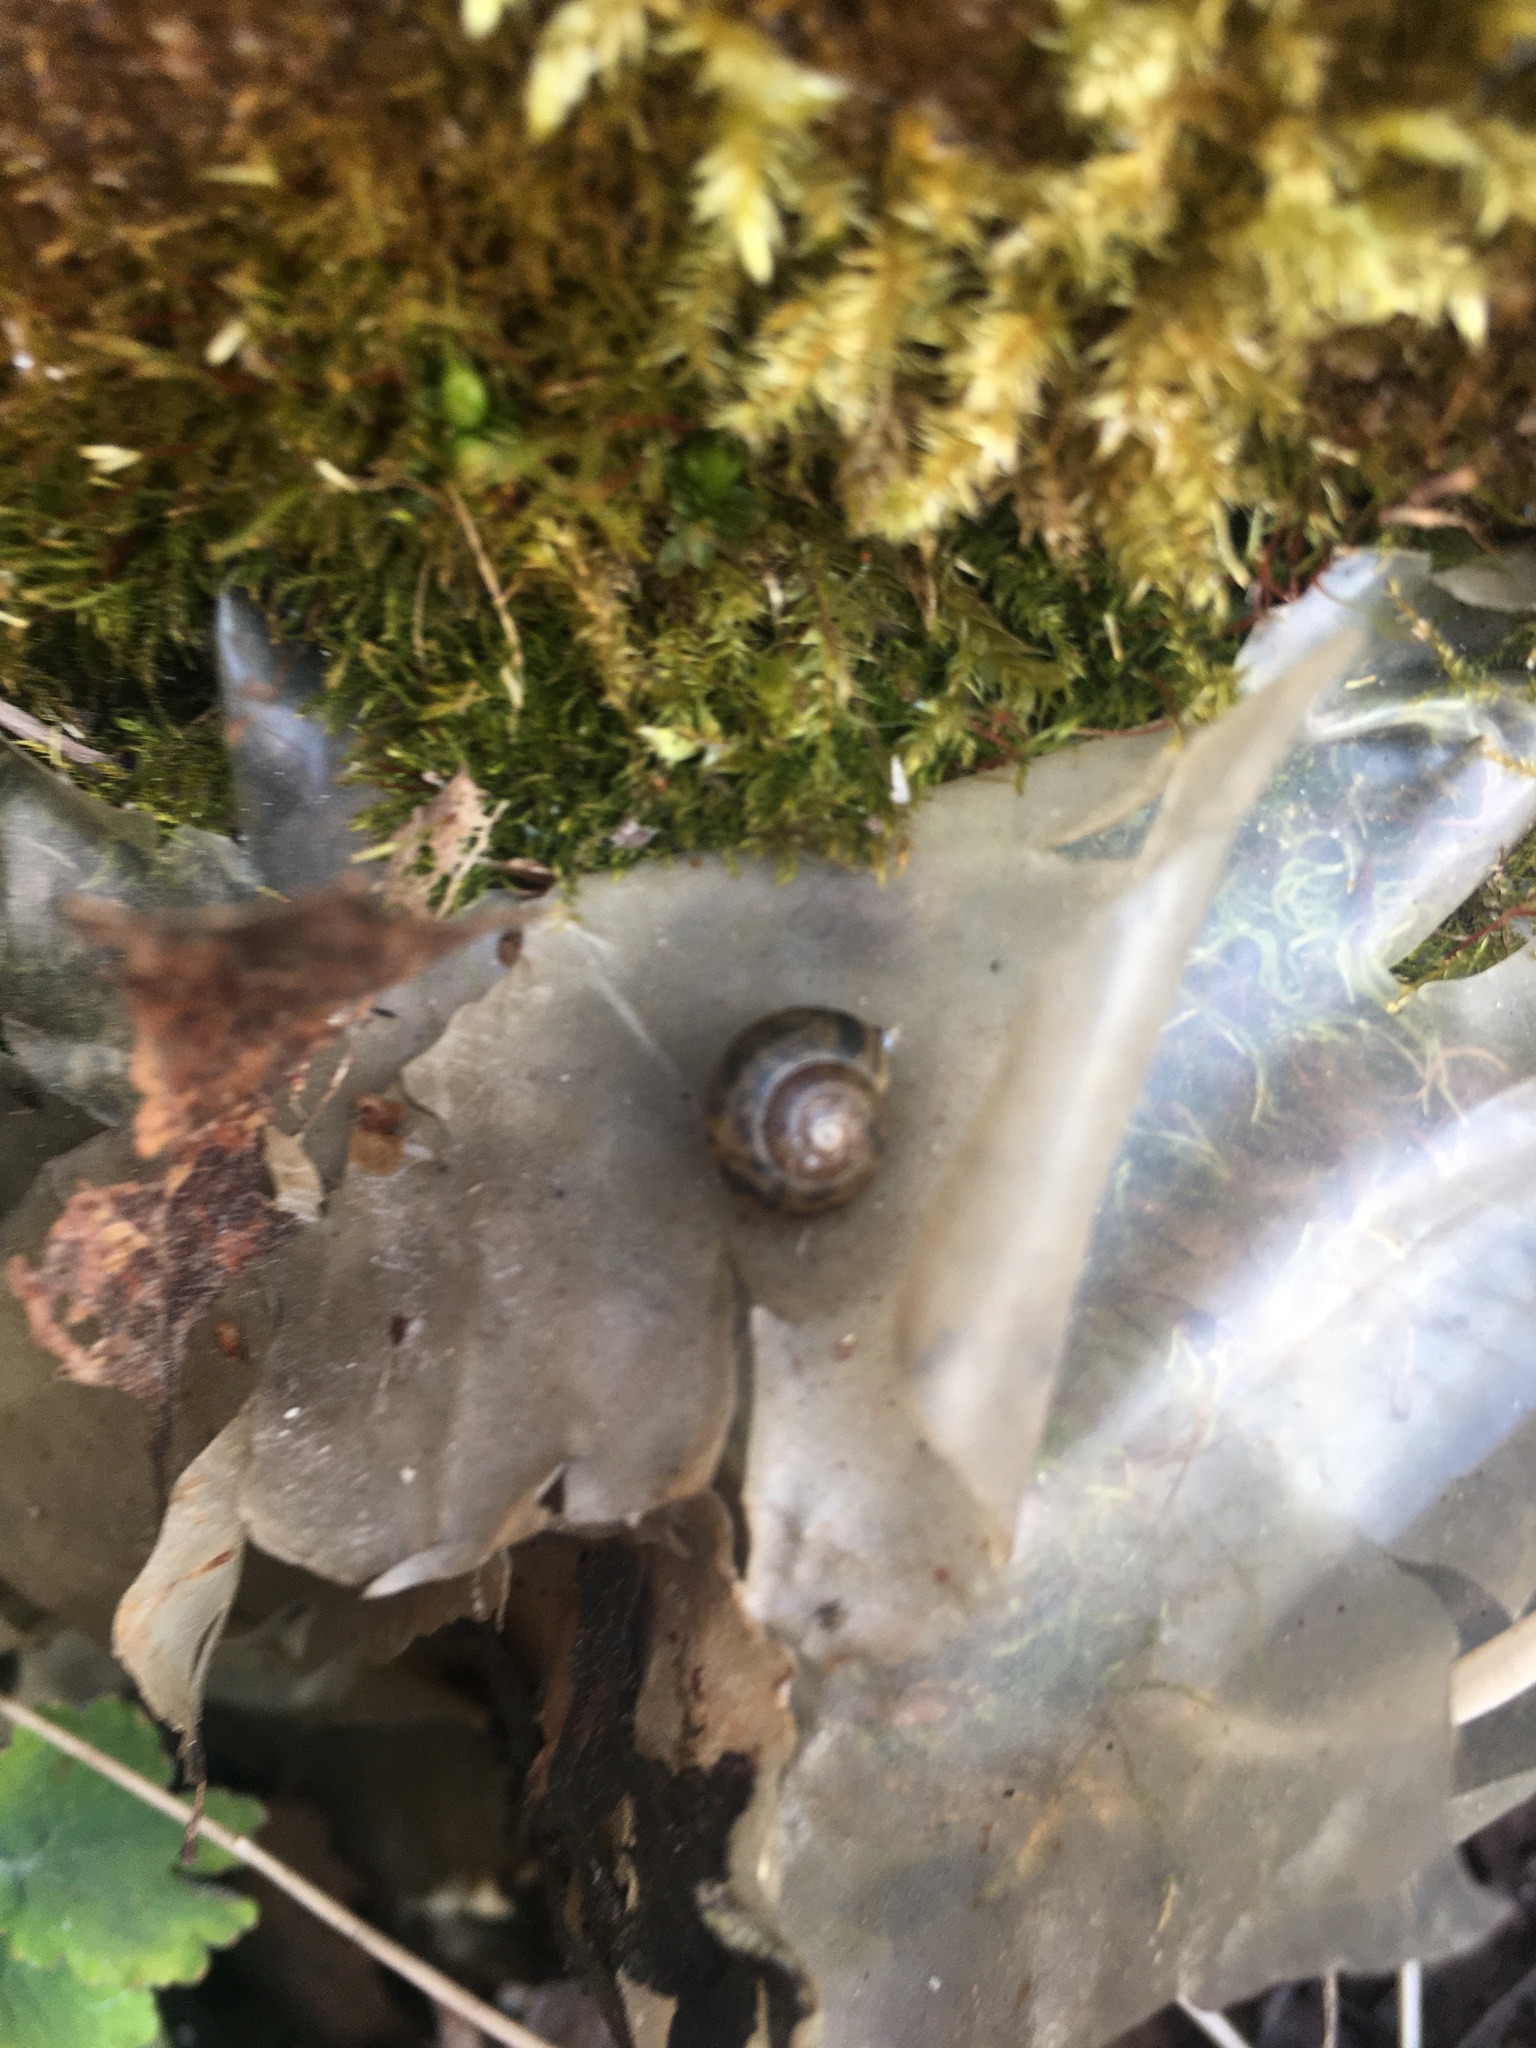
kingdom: Animalia
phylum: Mollusca
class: Gastropoda
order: Stylommatophora
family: Helicidae
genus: Arianta
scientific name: Arianta arbustorum
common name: Copse snail
